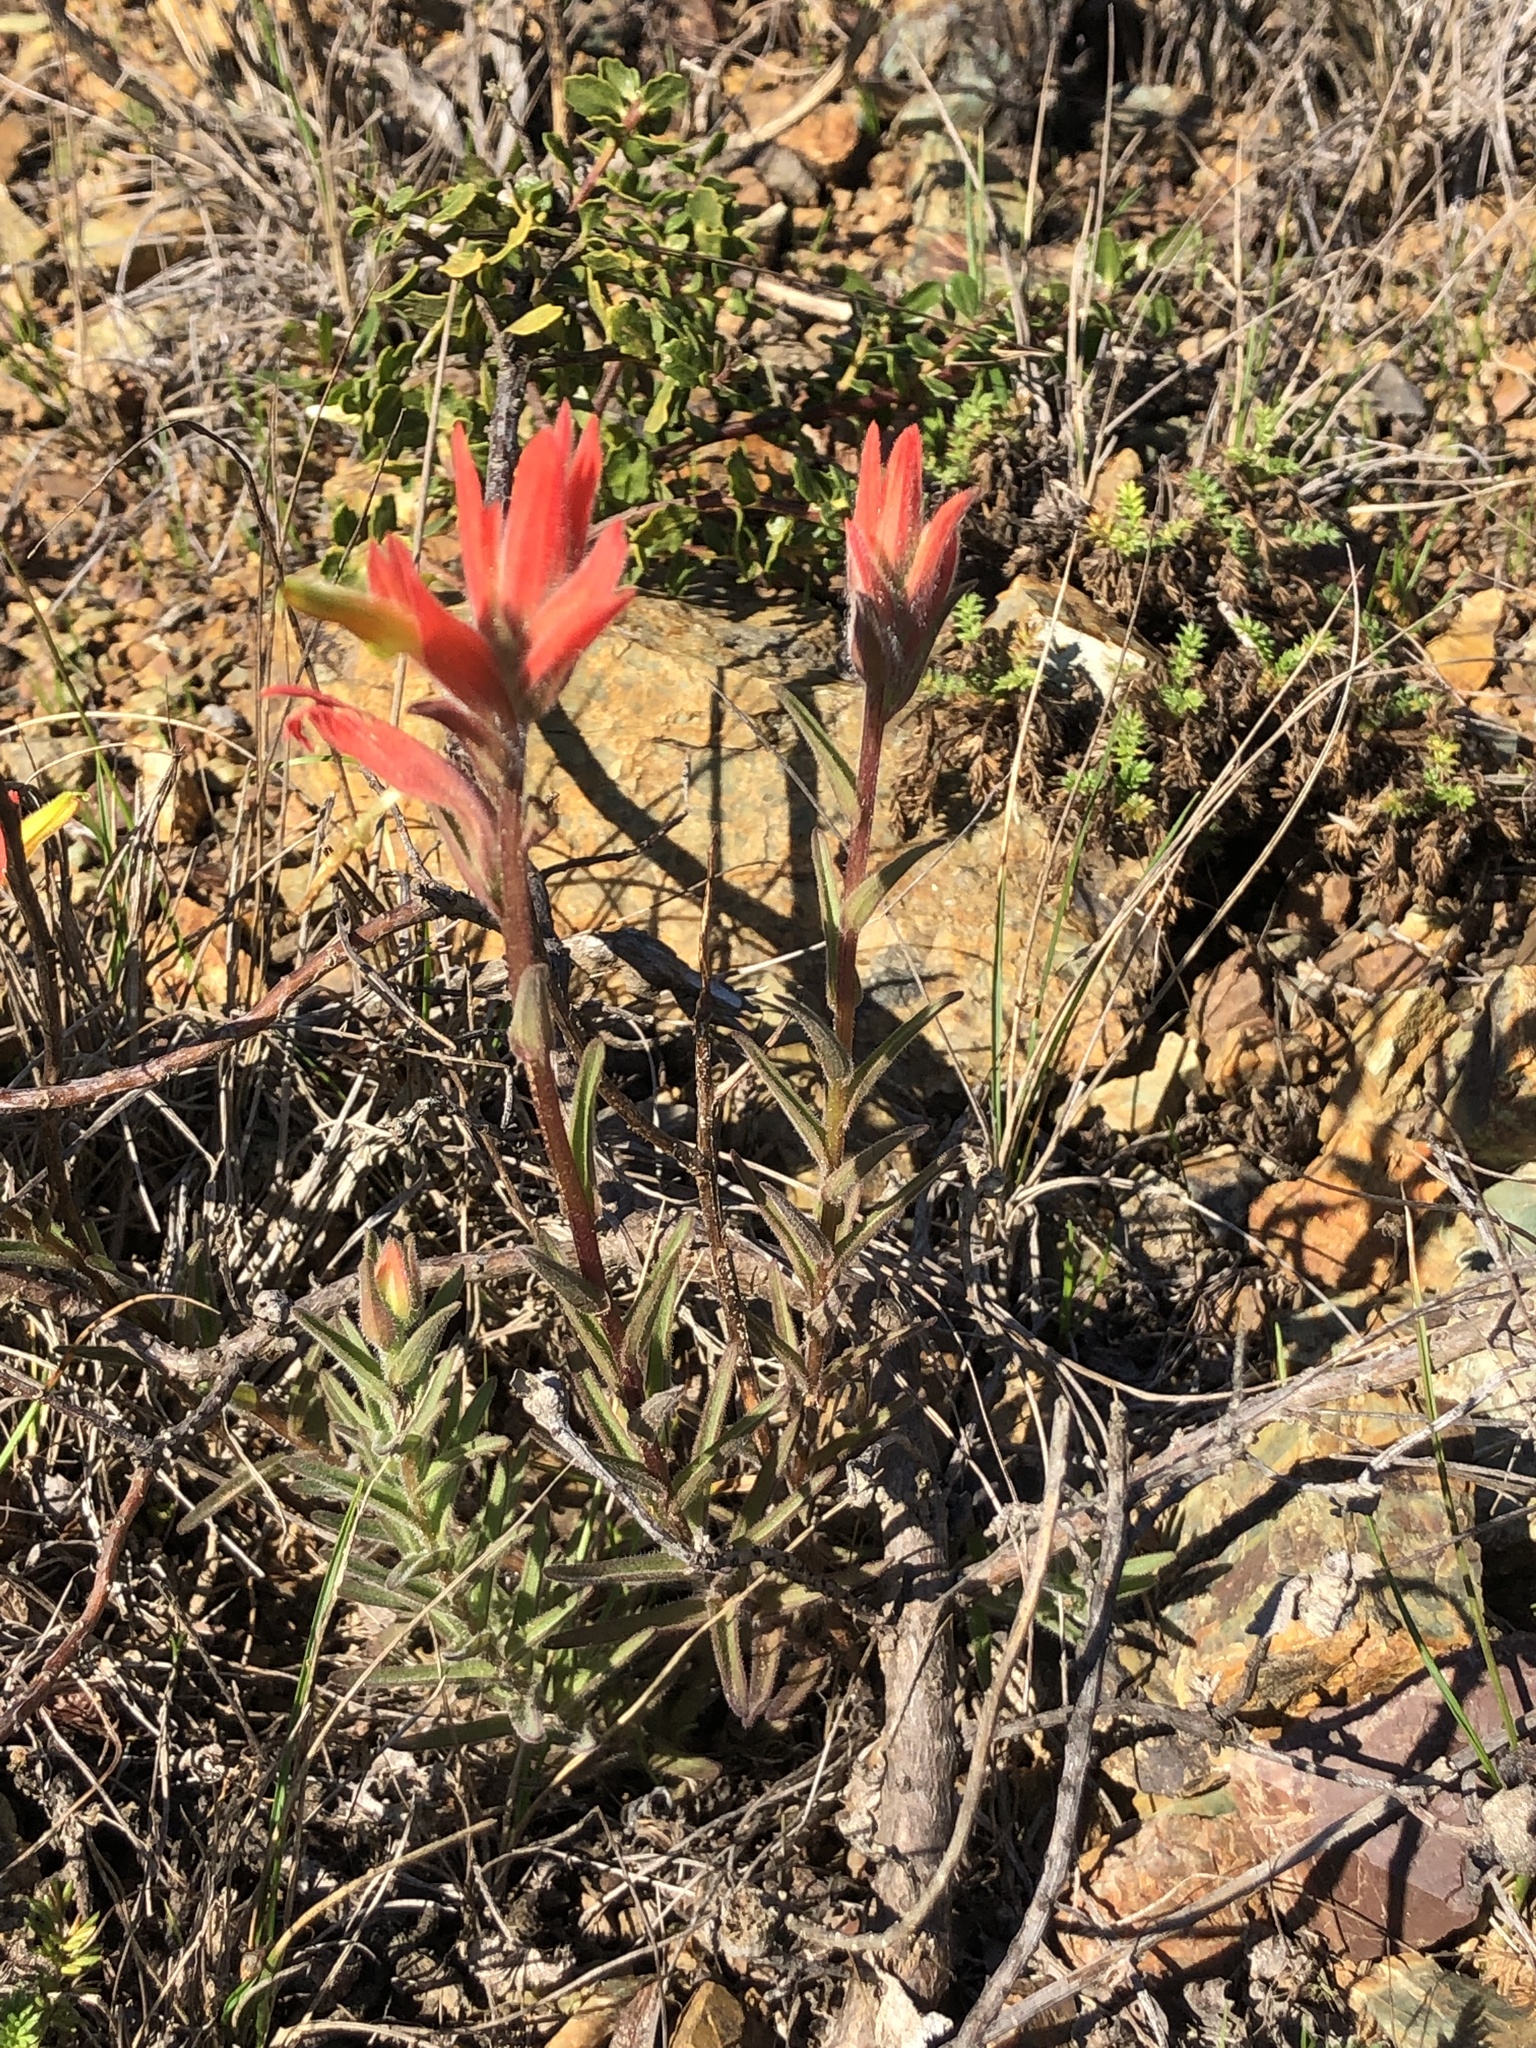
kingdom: Plantae
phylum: Tracheophyta
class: Magnoliopsida
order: Lamiales
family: Orobanchaceae
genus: Castilleja
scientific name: Castilleja subinclusa
